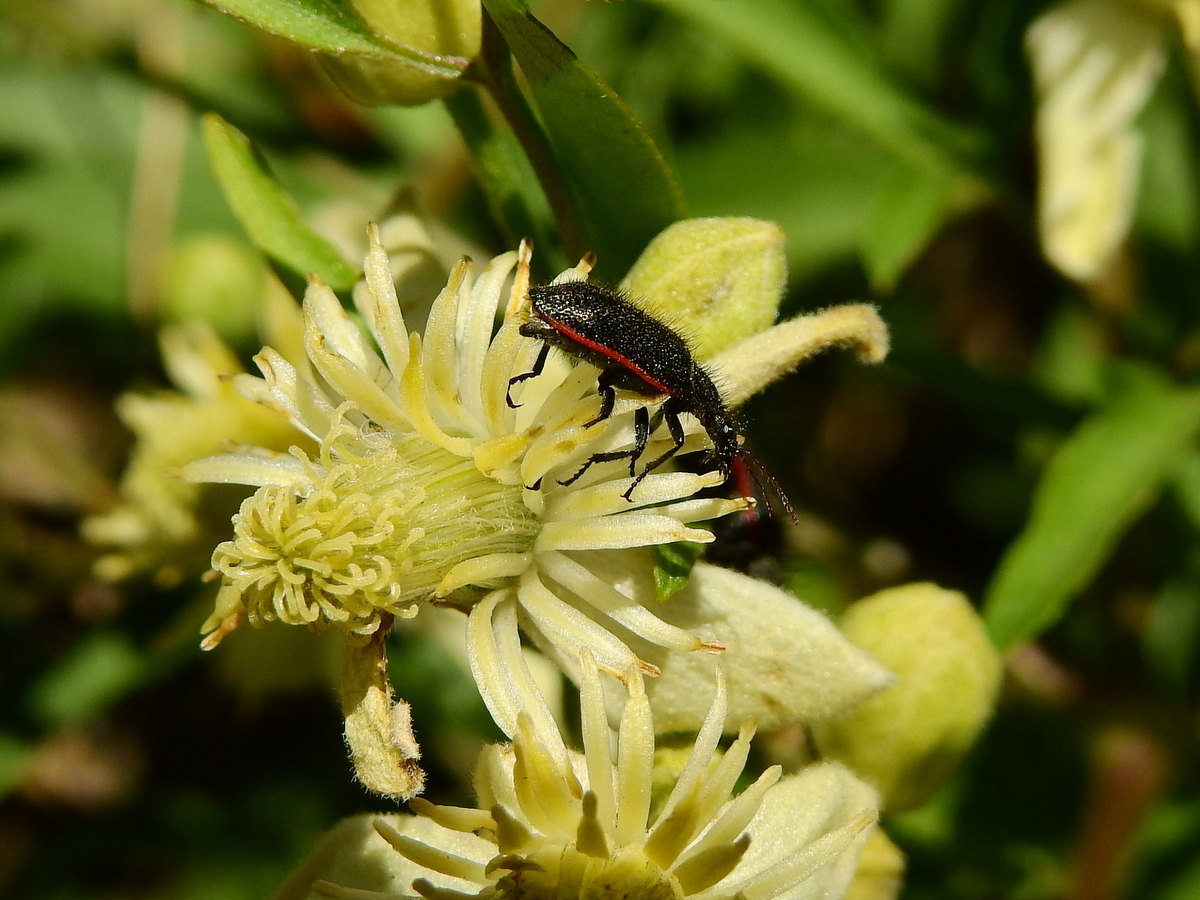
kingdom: Animalia
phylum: Arthropoda
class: Insecta
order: Coleoptera
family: Melyridae
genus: Astylus
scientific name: Astylus
